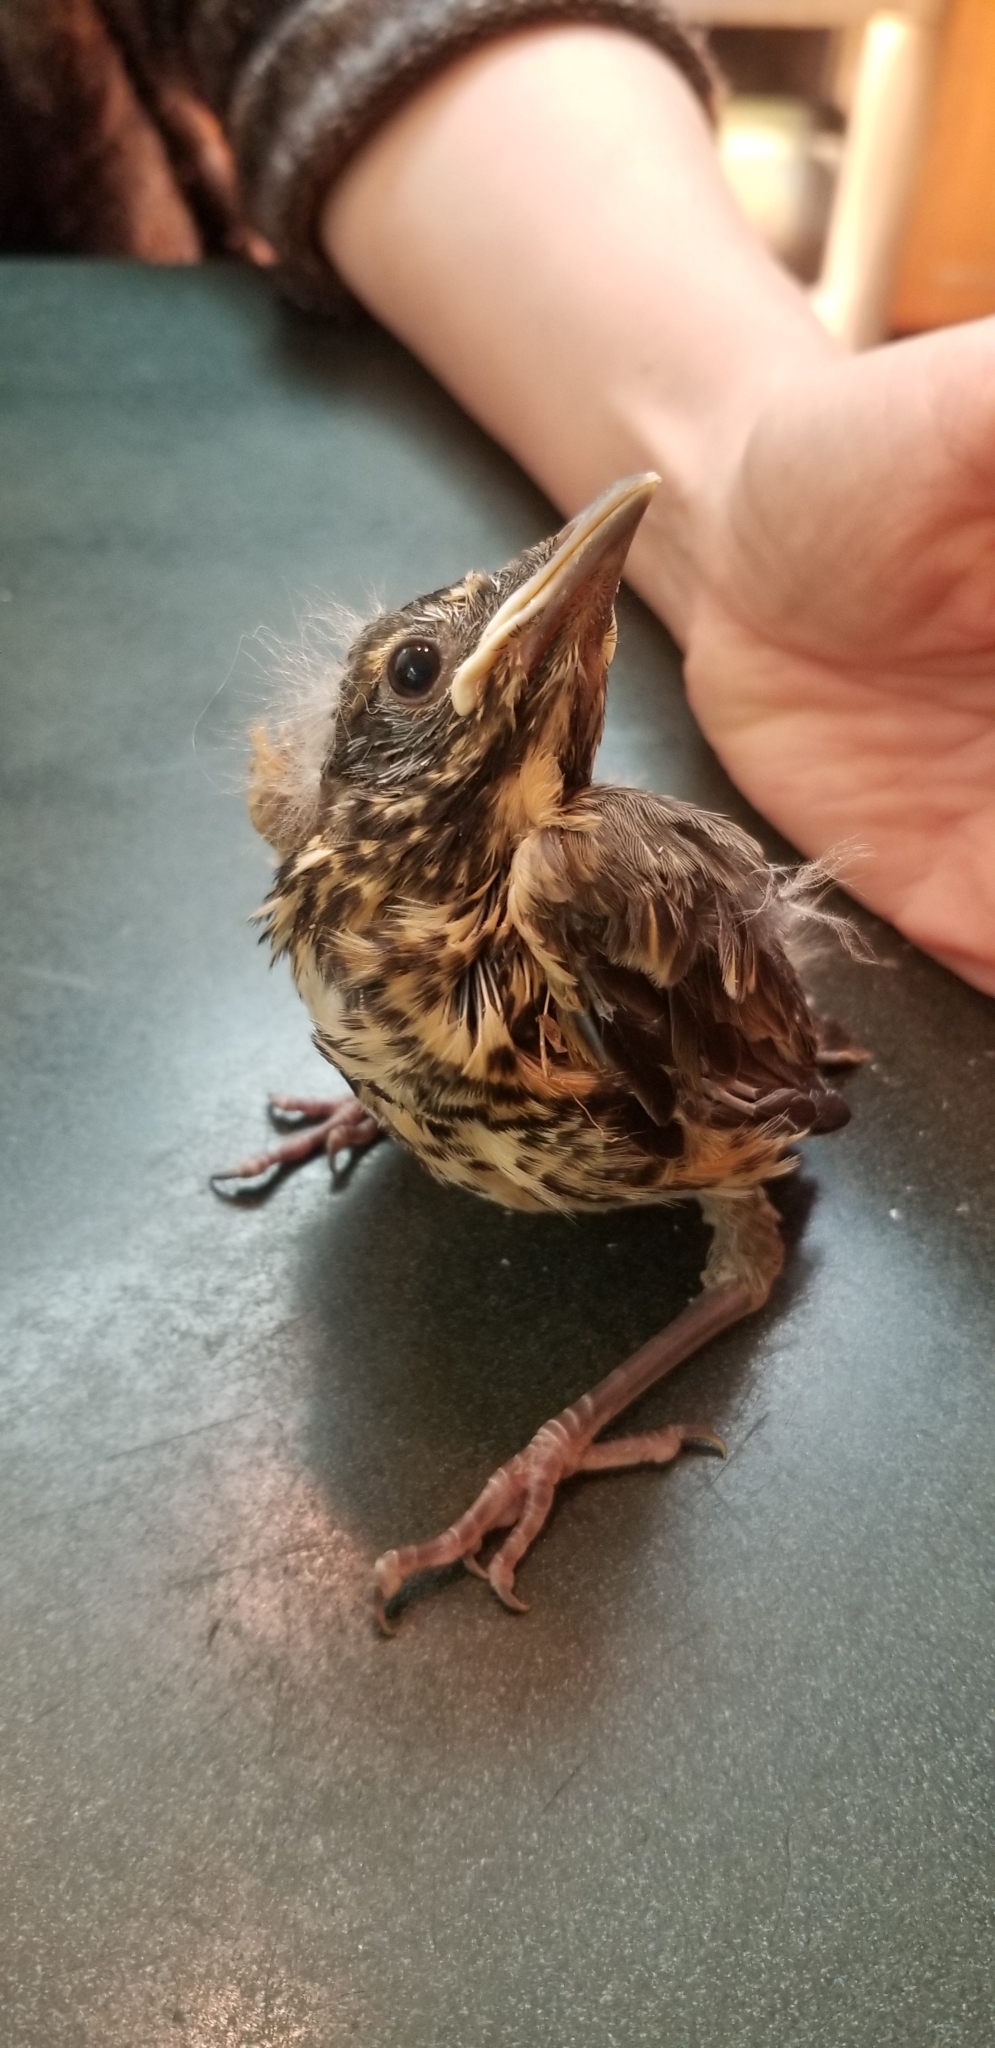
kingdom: Animalia
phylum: Chordata
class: Aves
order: Passeriformes
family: Turdidae
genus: Turdus
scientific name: Turdus migratorius
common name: American robin
